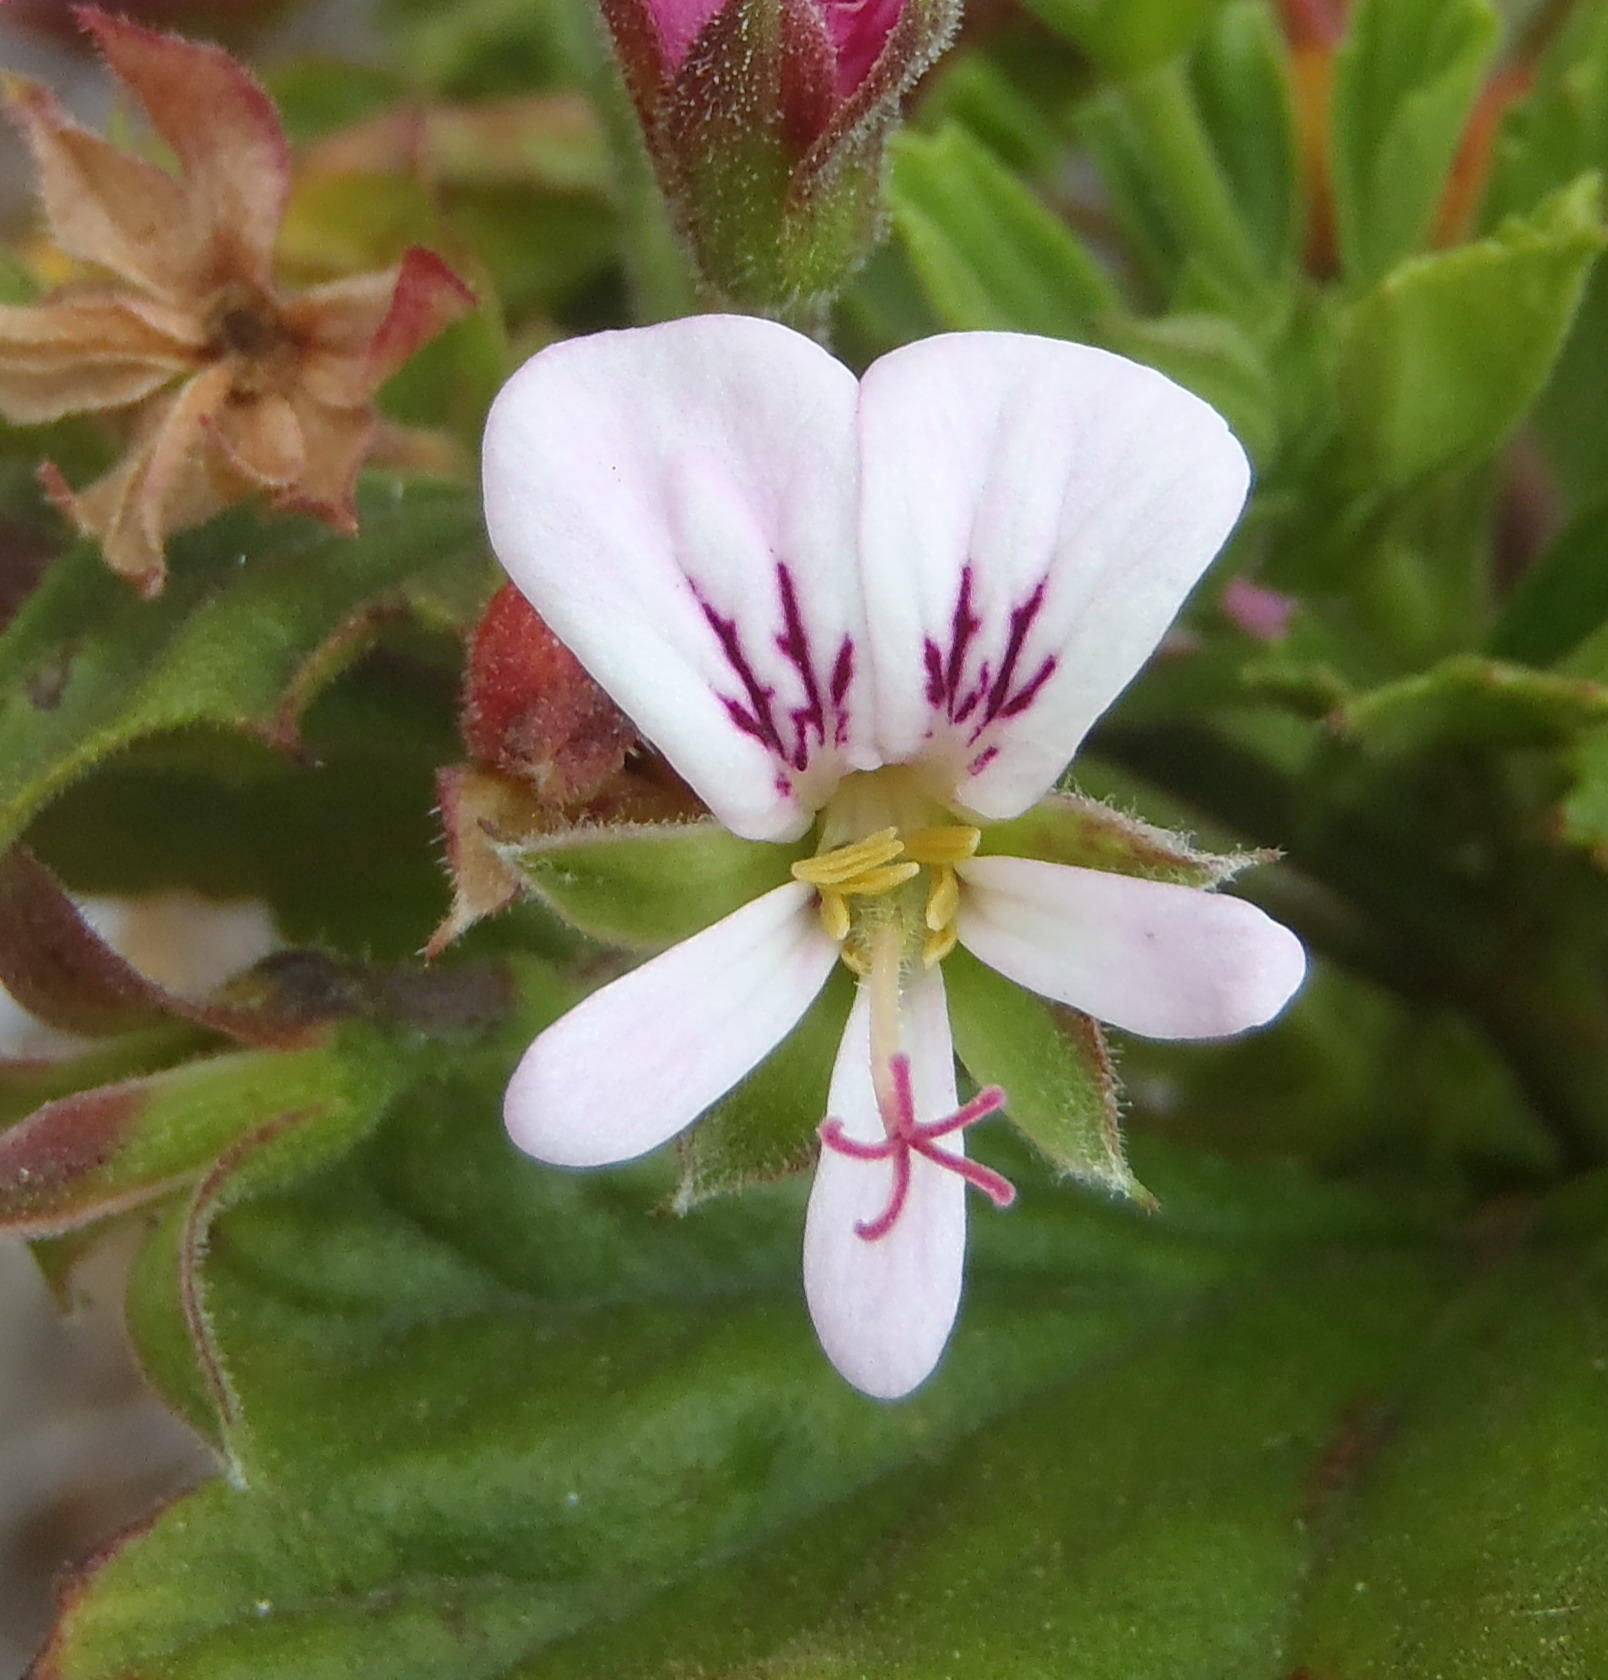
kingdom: Plantae
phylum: Tracheophyta
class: Magnoliopsida
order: Geraniales
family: Geraniaceae
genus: Pelargonium
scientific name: Pelargonium scabrum
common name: Apricot geranium
